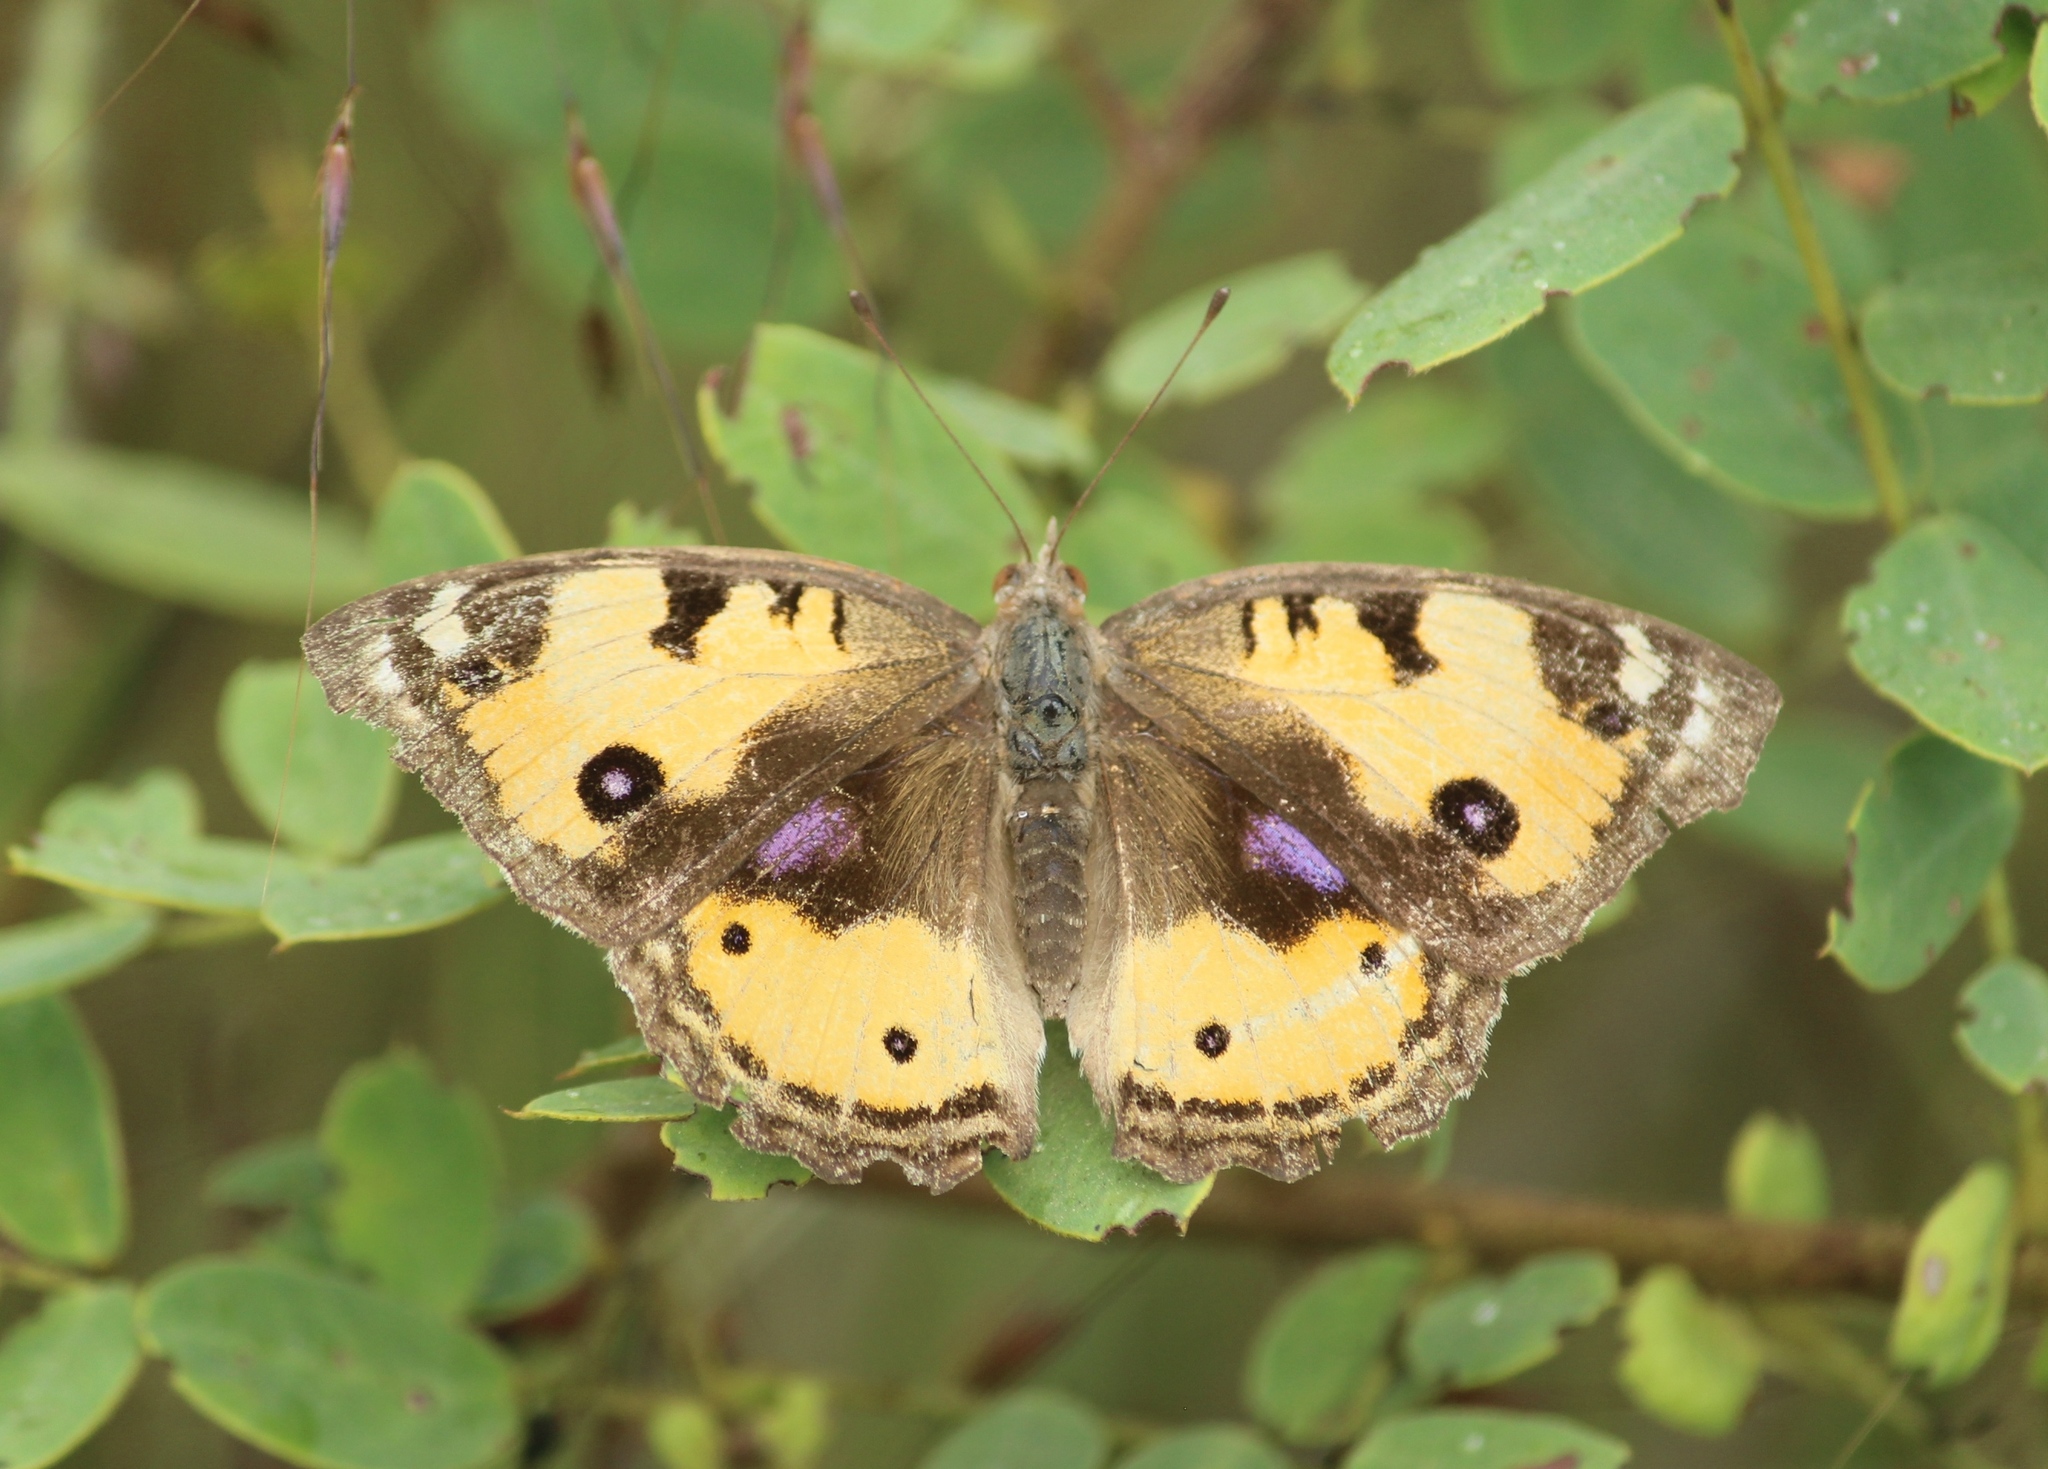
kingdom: Animalia
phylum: Arthropoda
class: Insecta
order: Lepidoptera
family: Nymphalidae
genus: Junonia
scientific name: Junonia hierta
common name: Yellow pansy
